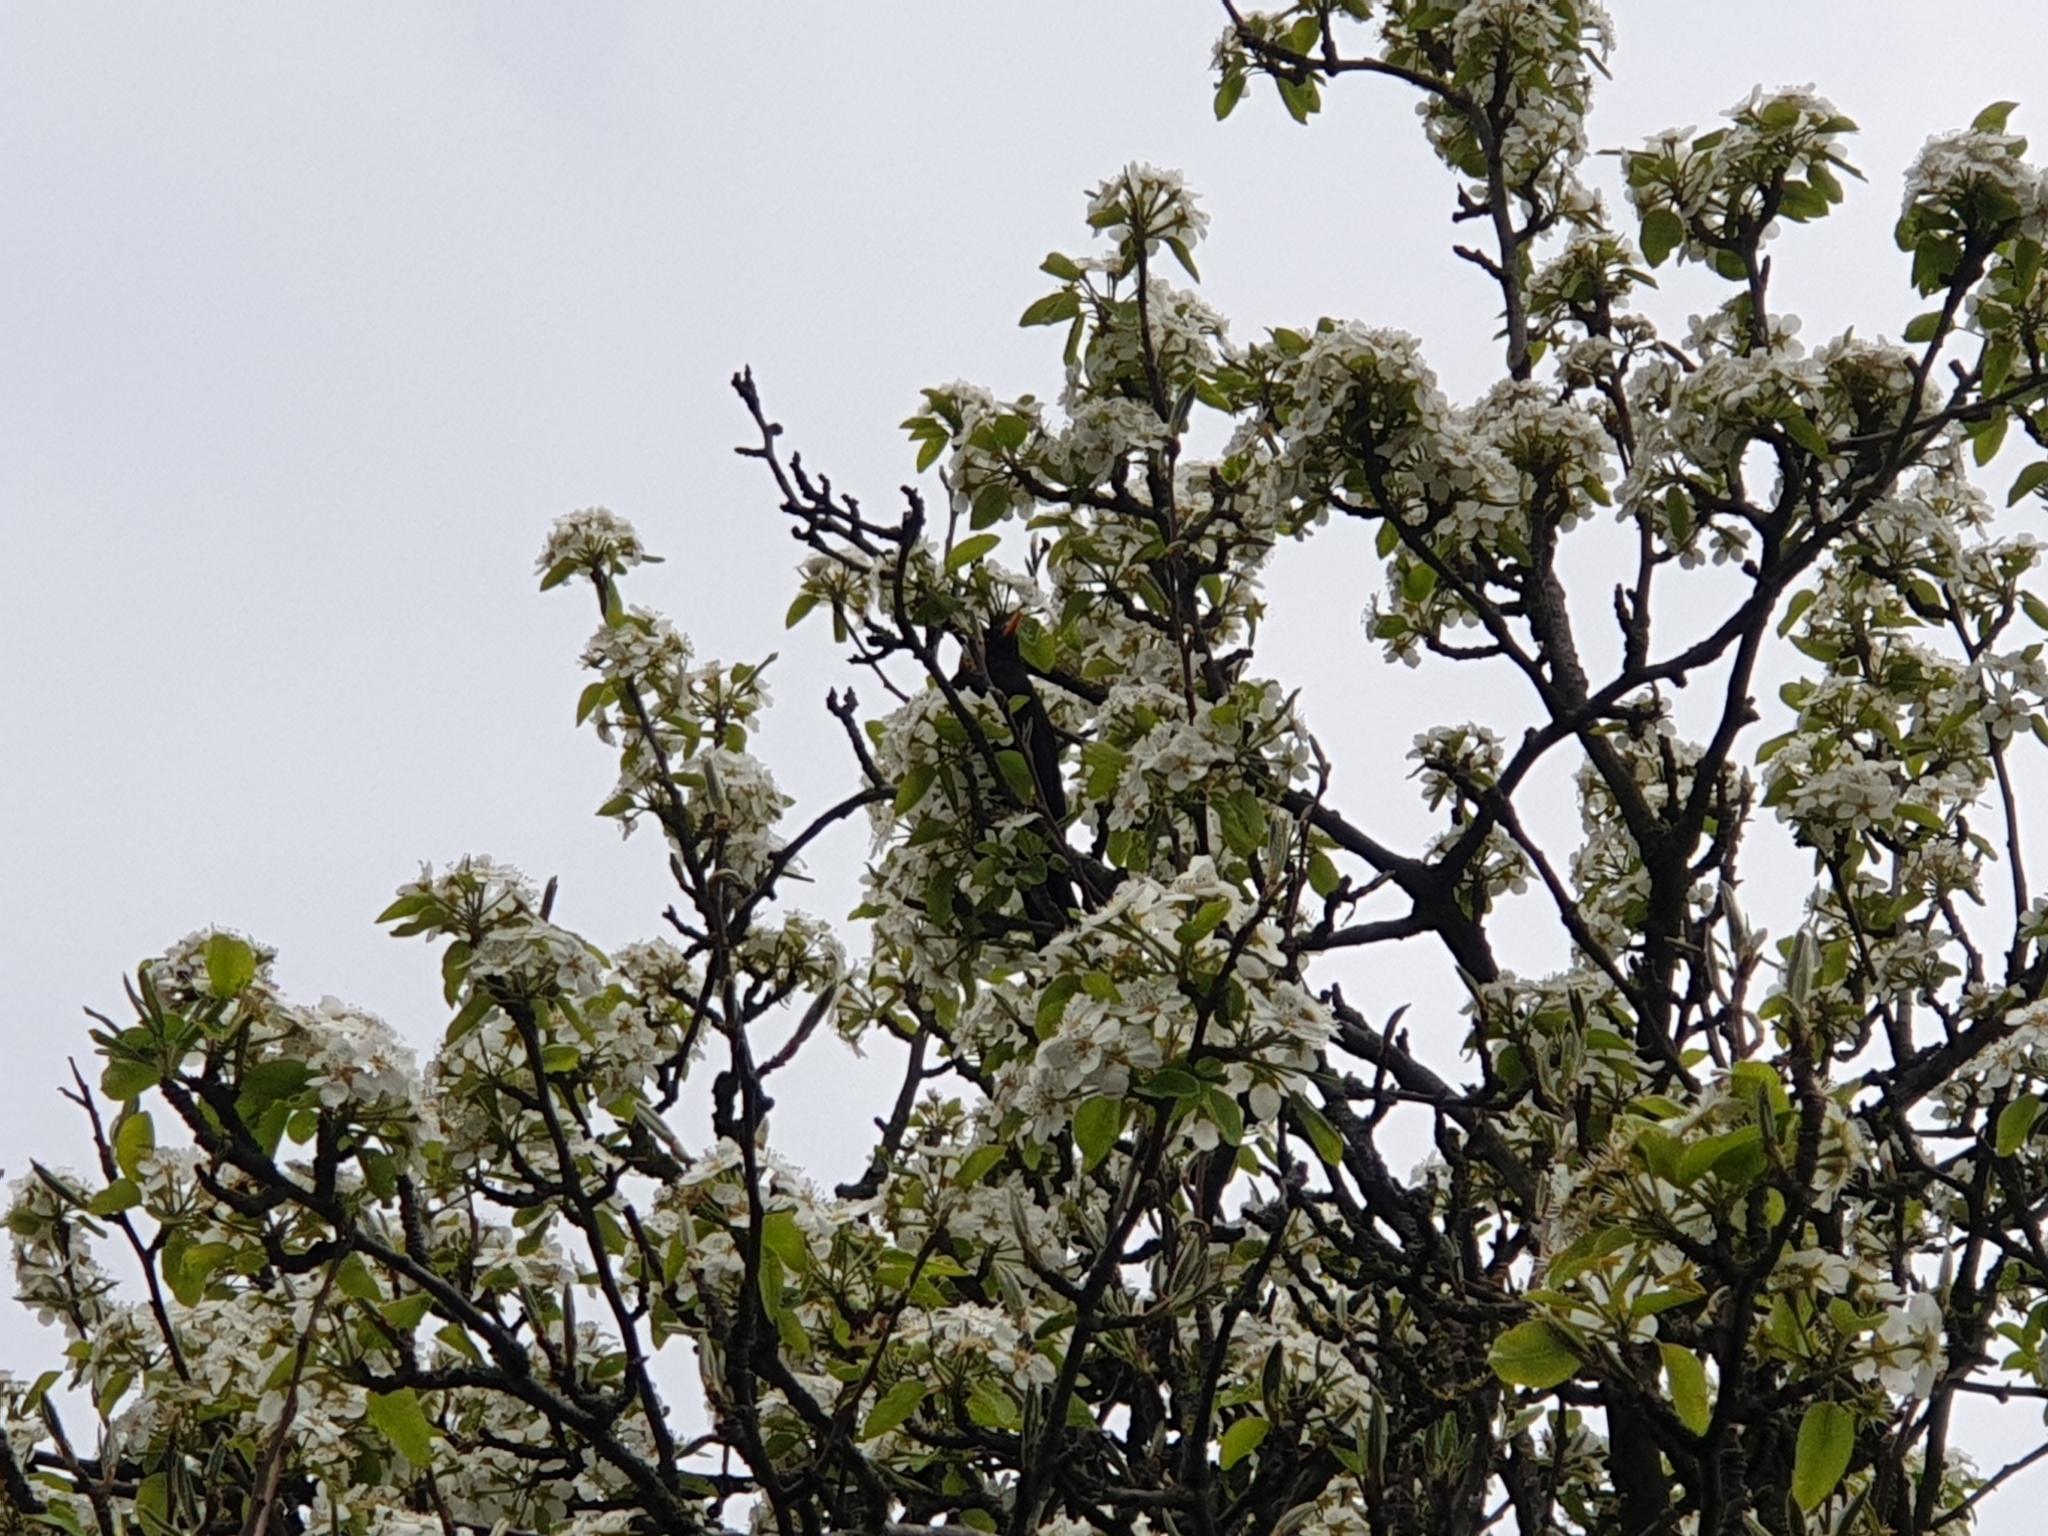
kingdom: Animalia
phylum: Chordata
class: Aves
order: Passeriformes
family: Turdidae
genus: Turdus
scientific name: Turdus merula
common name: Common blackbird
